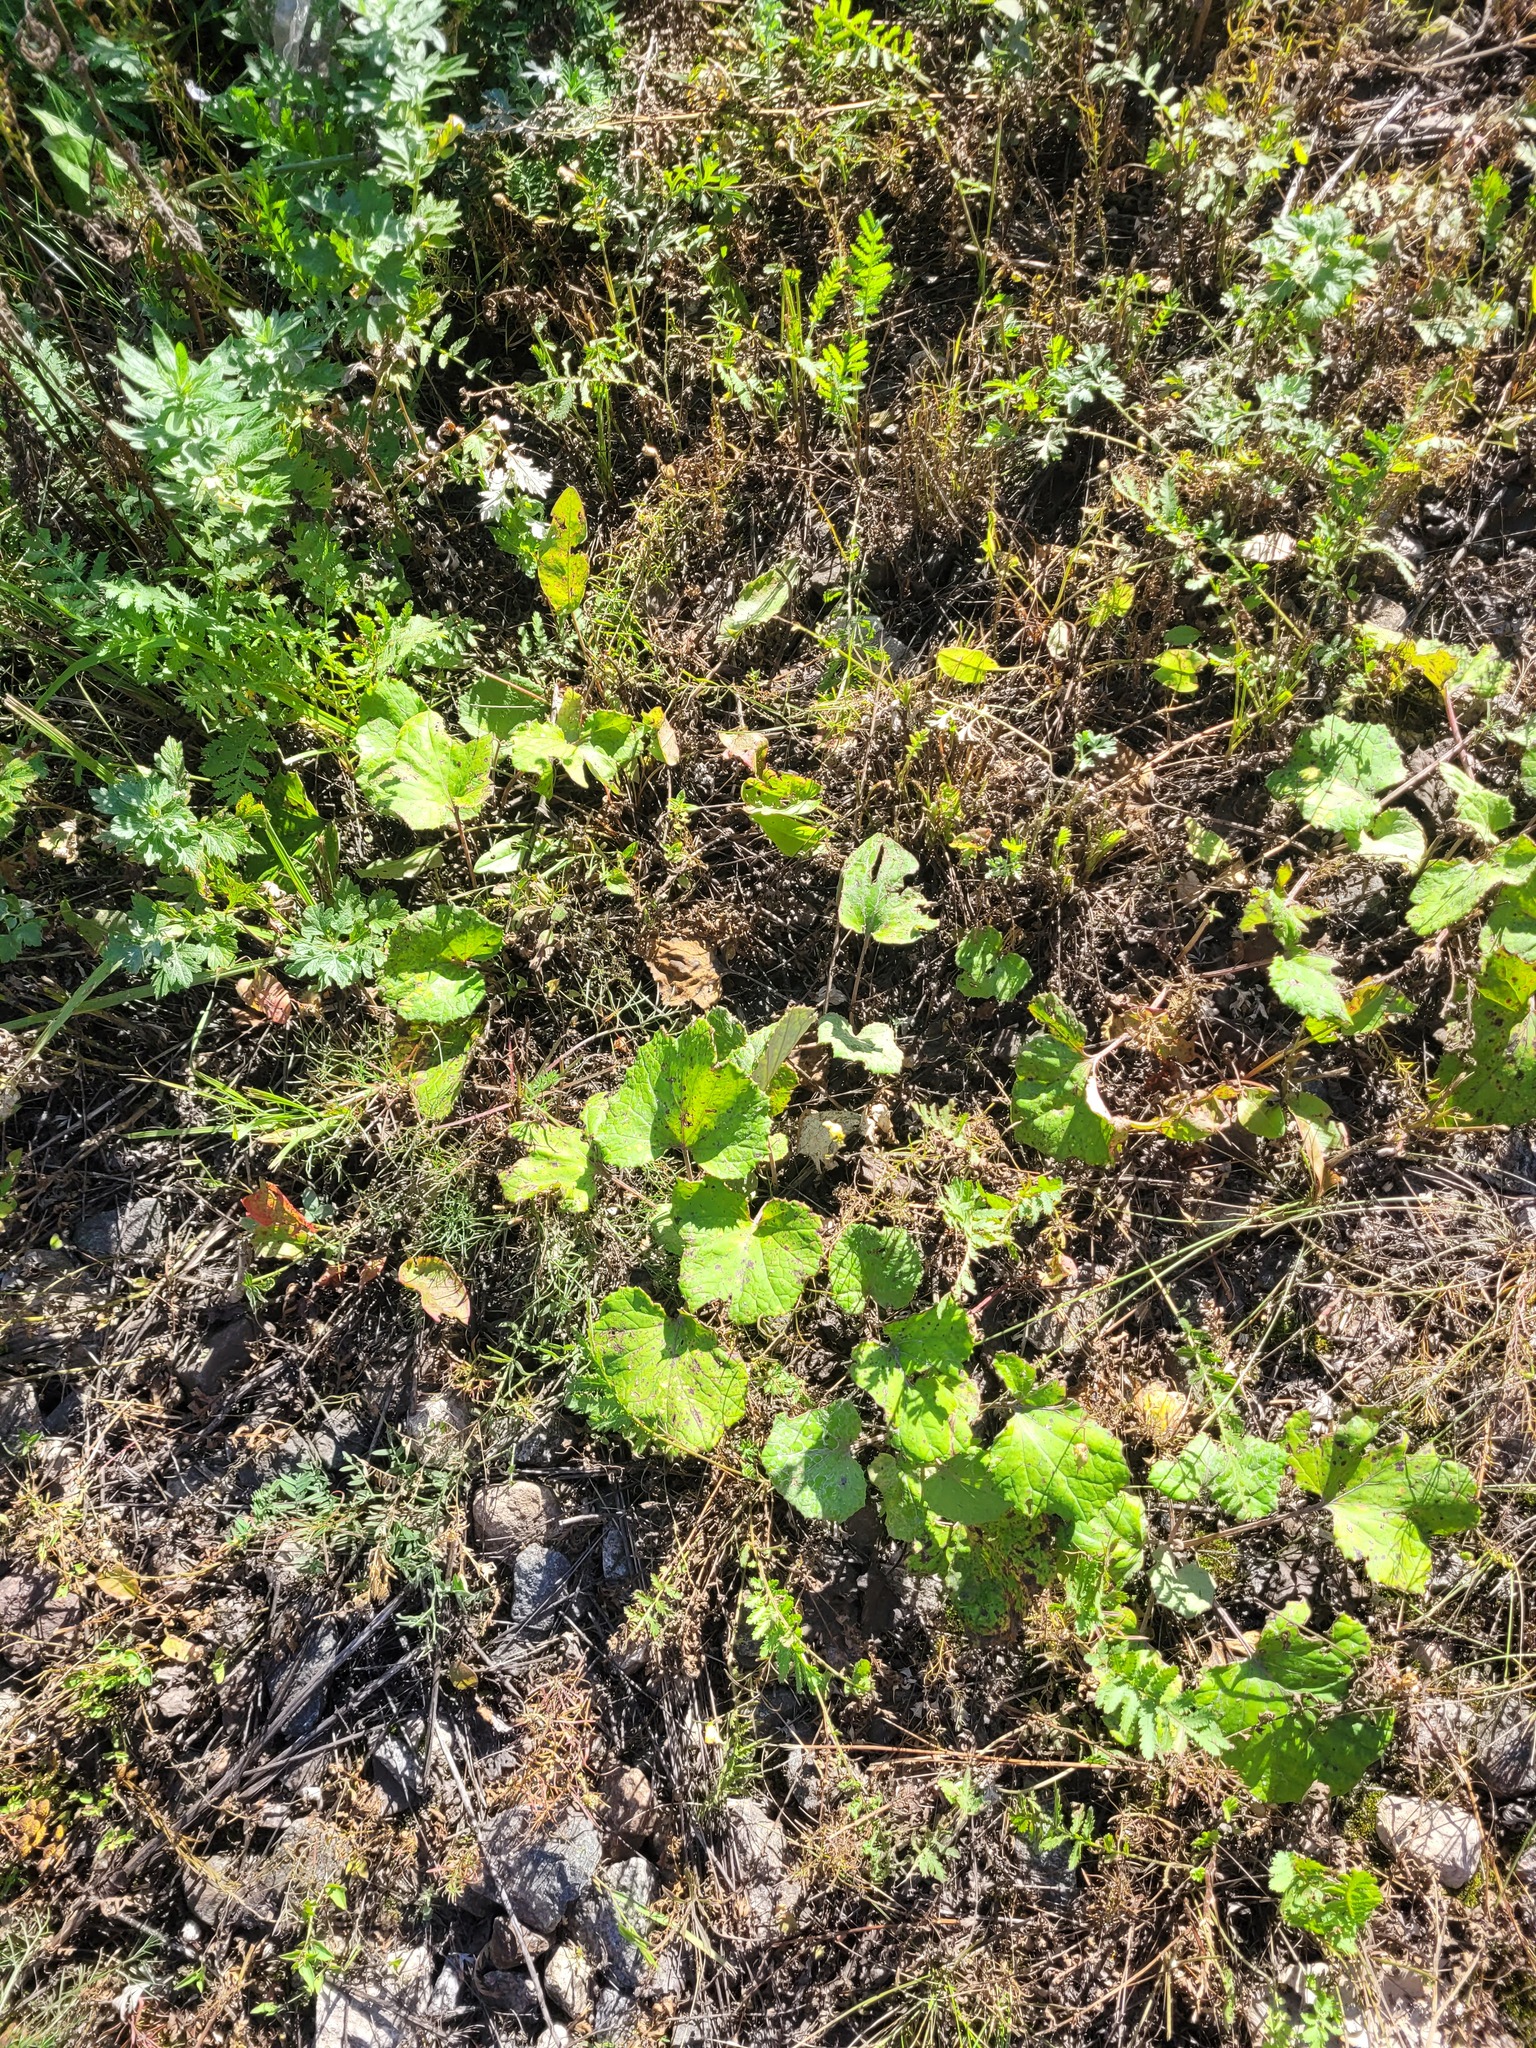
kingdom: Plantae
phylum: Tracheophyta
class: Magnoliopsida
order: Asterales
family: Asteraceae
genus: Tussilago
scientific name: Tussilago farfara
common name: Coltsfoot
